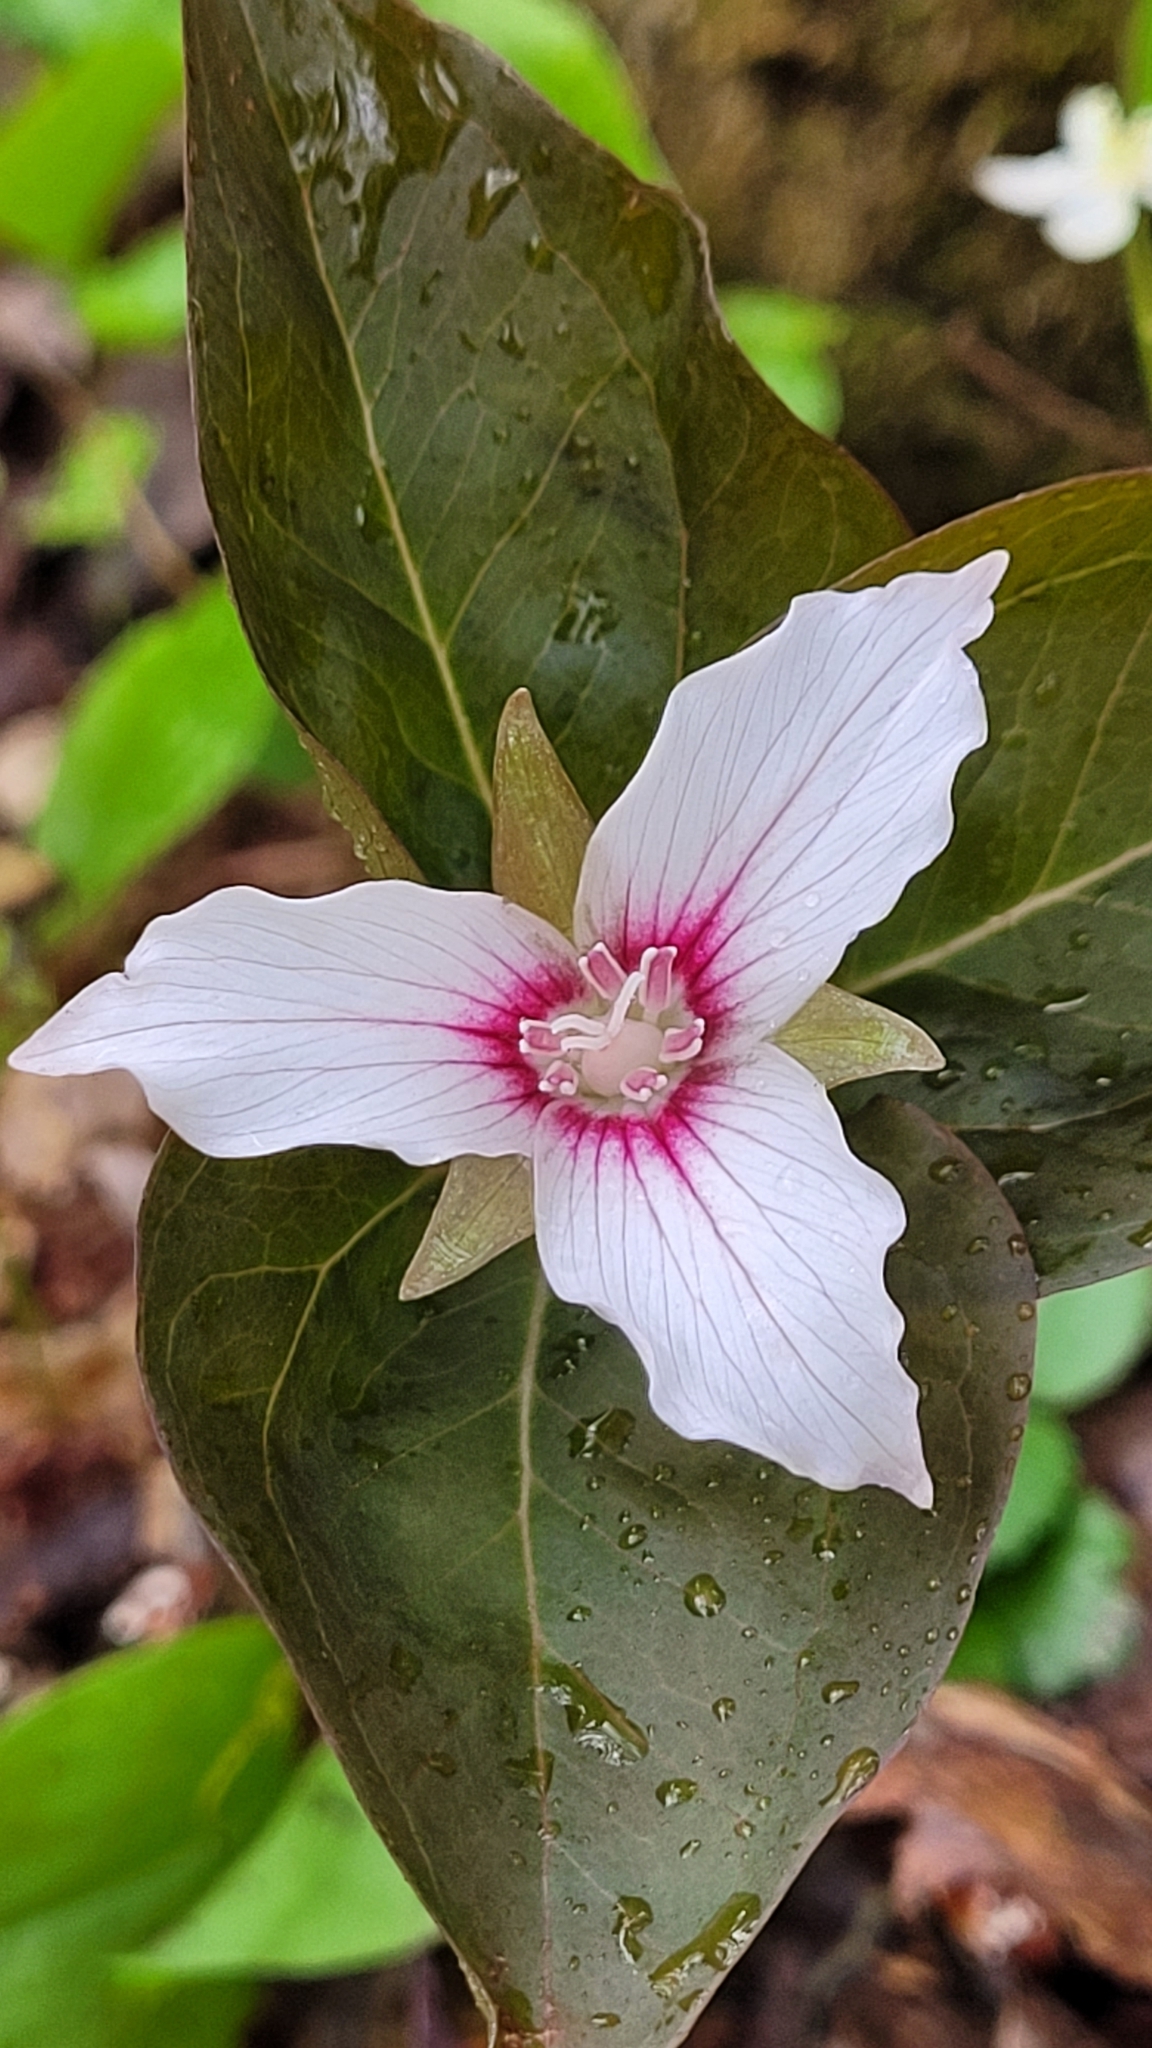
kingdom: Plantae
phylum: Tracheophyta
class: Liliopsida
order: Liliales
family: Melanthiaceae
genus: Trillium
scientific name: Trillium undulatum
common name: Paint trillium
